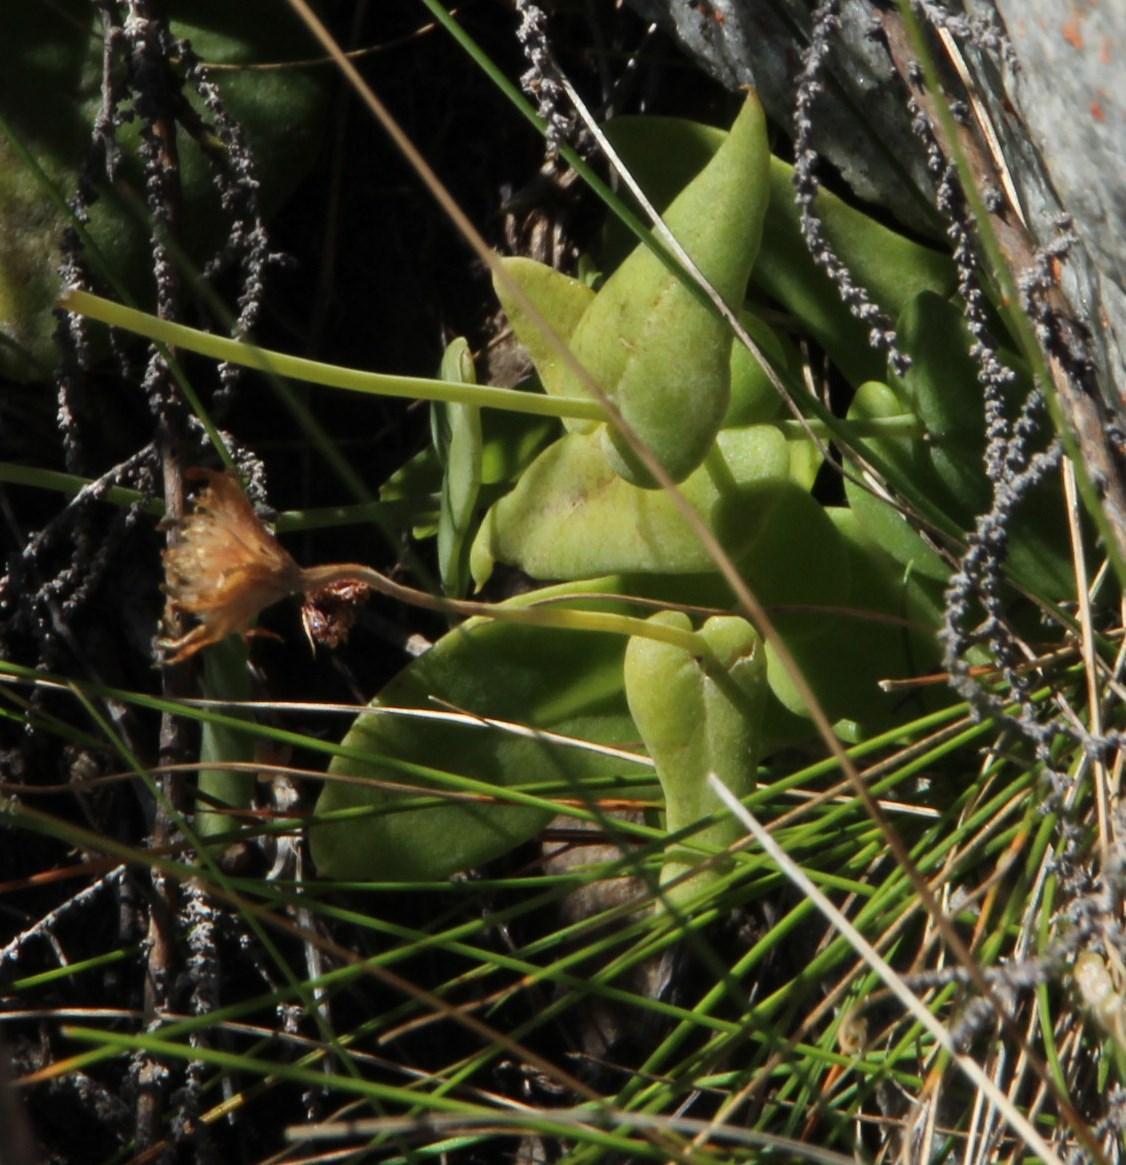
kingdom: Plantae
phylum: Tracheophyta
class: Magnoliopsida
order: Asterales
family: Asteraceae
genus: Othonna
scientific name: Othonna perfoliata
